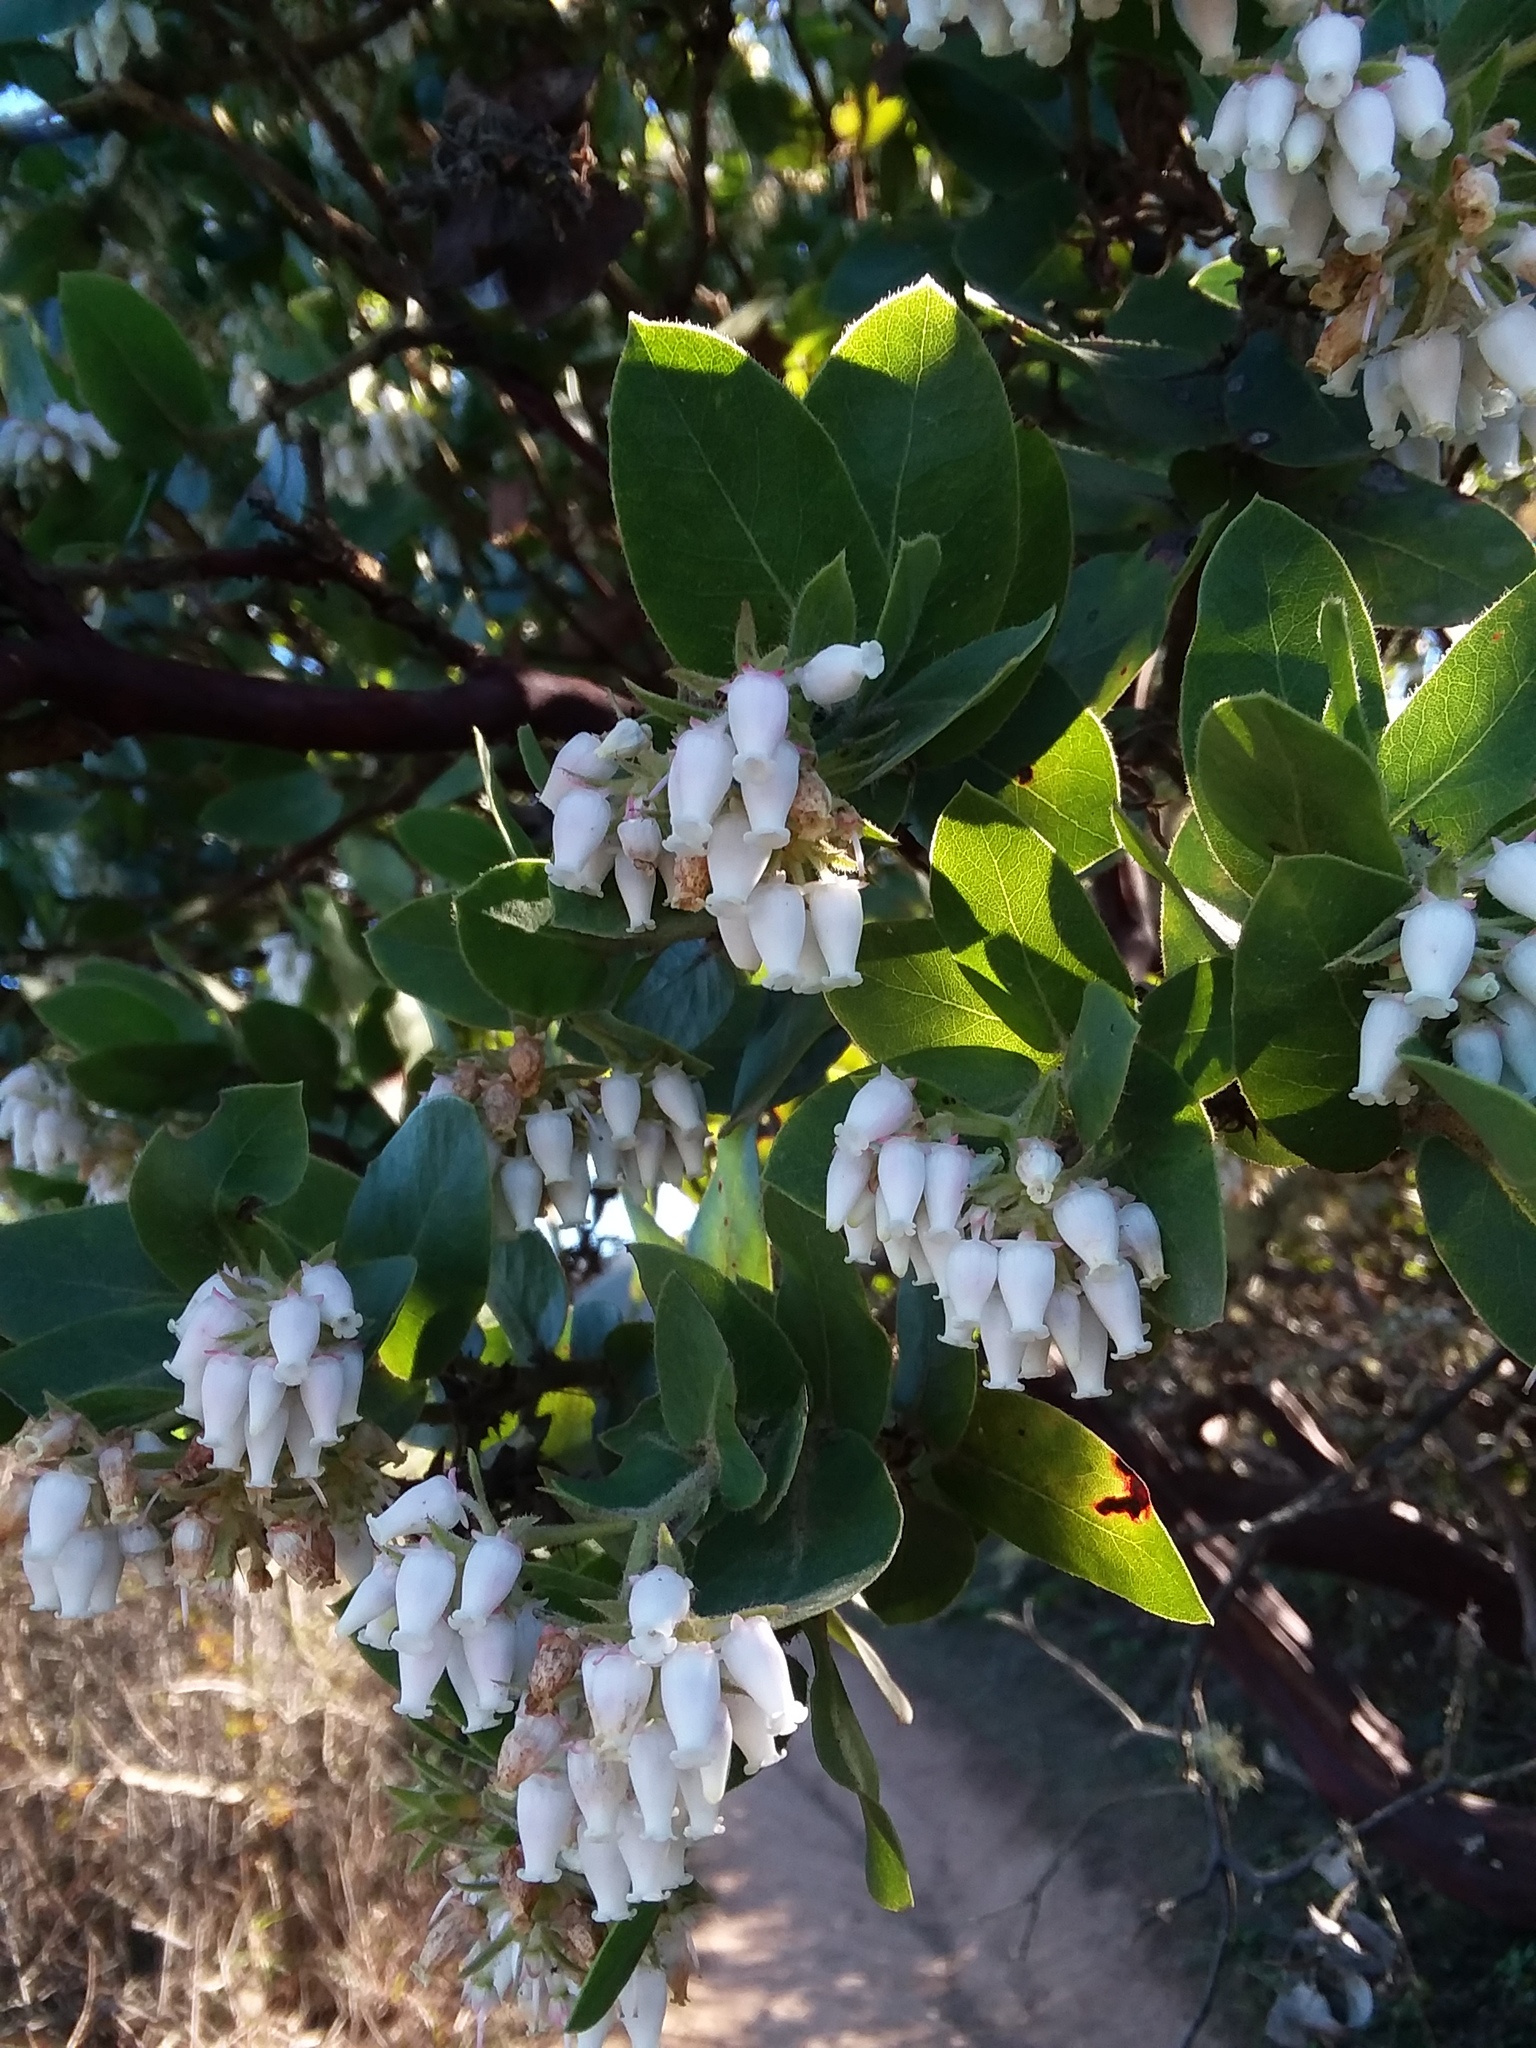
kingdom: Plantae
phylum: Tracheophyta
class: Magnoliopsida
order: Ericales
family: Ericaceae
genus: Arctostaphylos
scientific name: Arctostaphylos montaraensis
